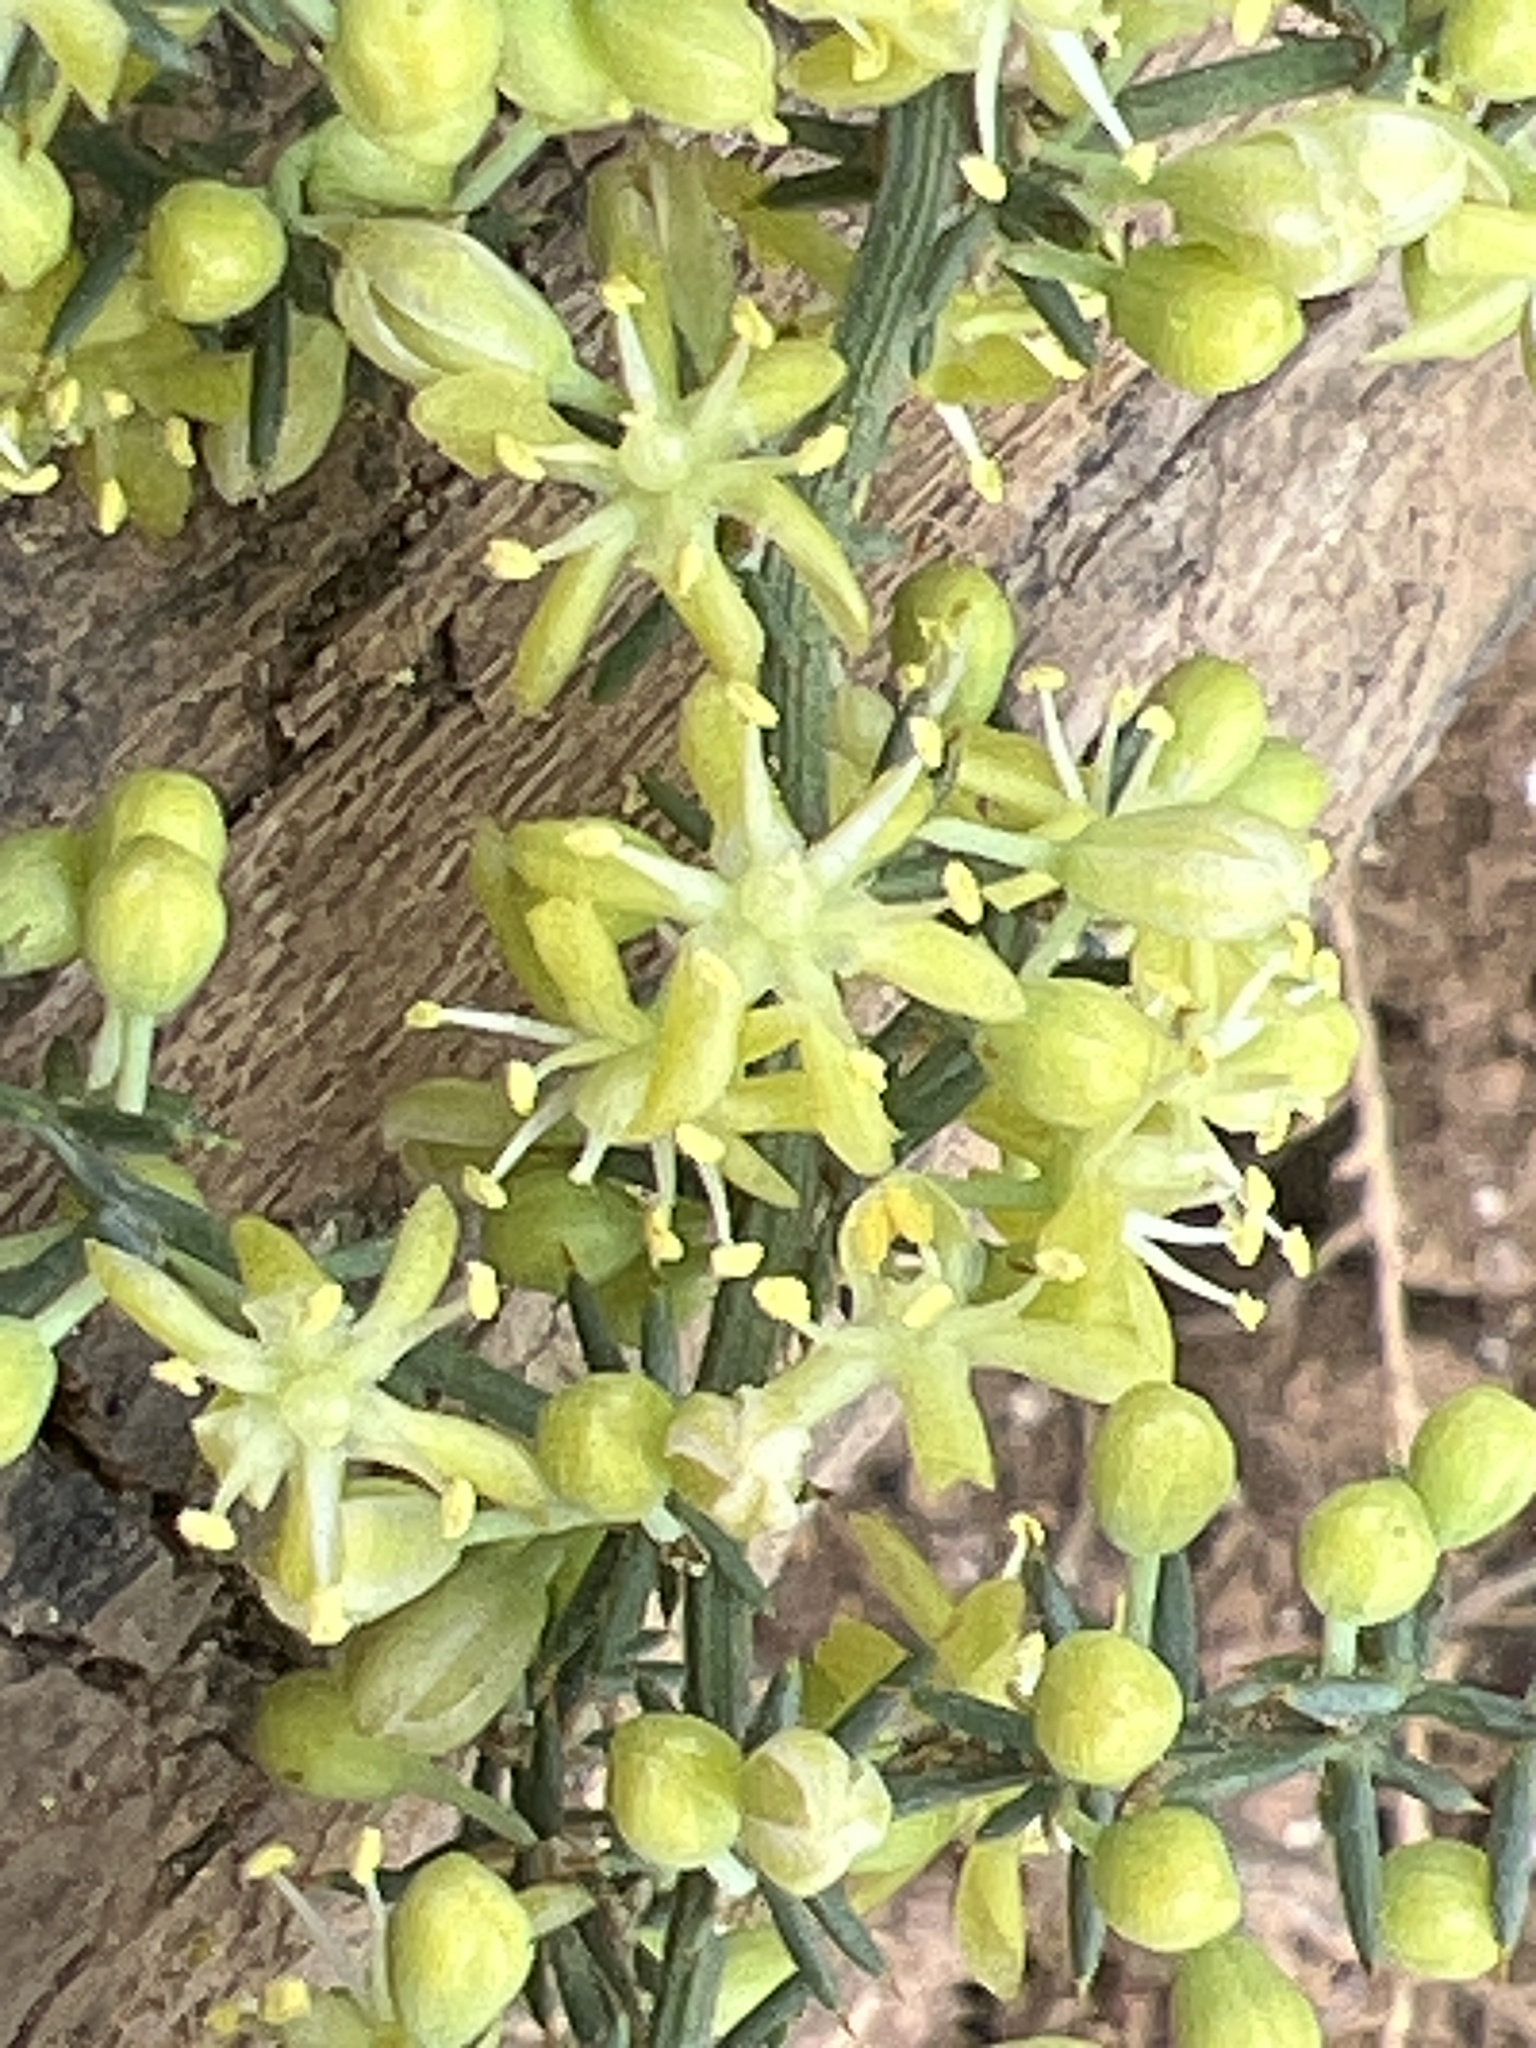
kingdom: Plantae
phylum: Tracheophyta
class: Liliopsida
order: Asparagales
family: Asparagaceae
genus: Asparagus
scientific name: Asparagus aphyllus
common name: Mediterranean asparagus
